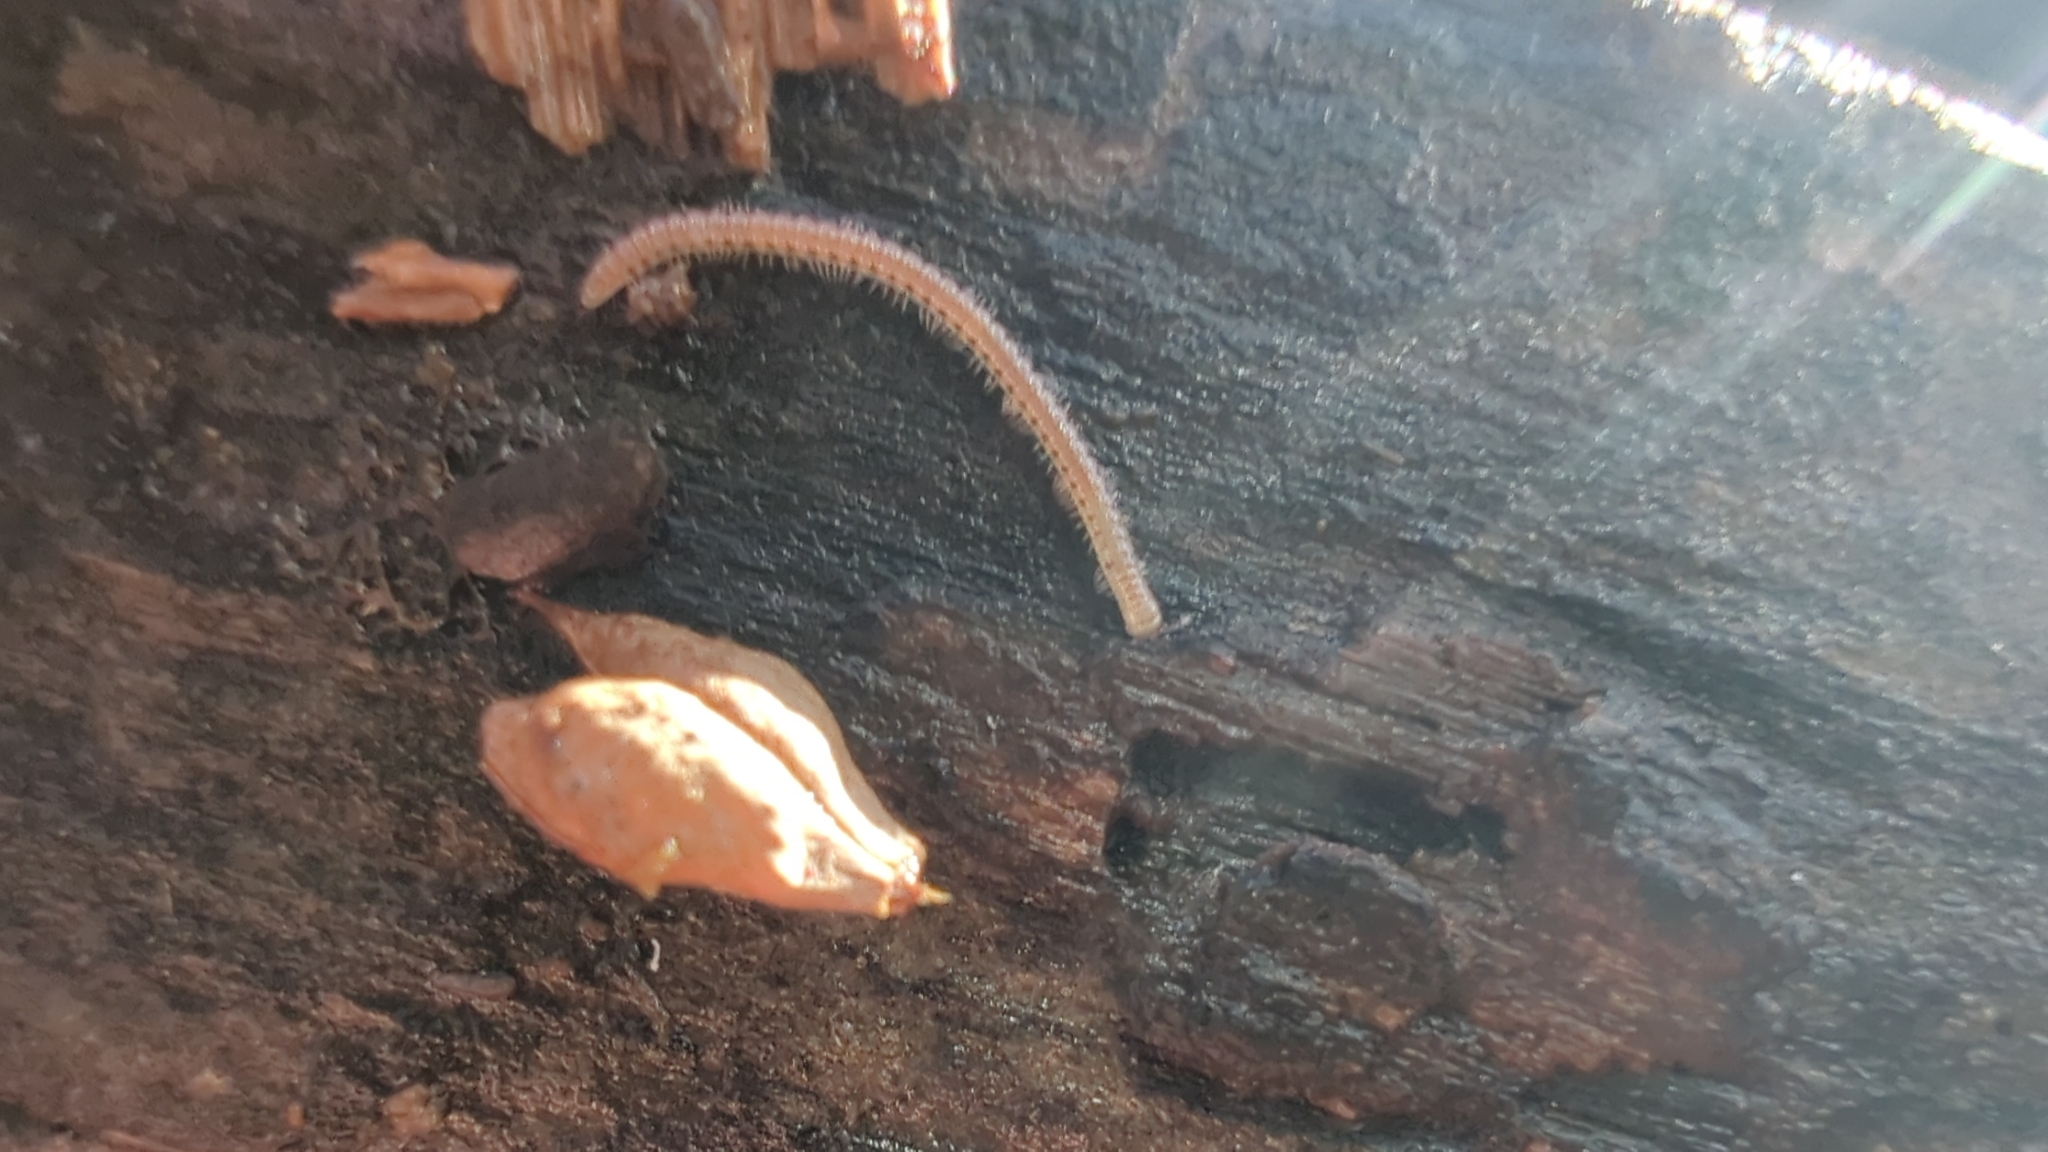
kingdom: Animalia
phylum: Arthropoda
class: Diplopoda
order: Julida
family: Blaniulidae
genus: Blaniulus
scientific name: Blaniulus guttulatus
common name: Spotted snake millipede
